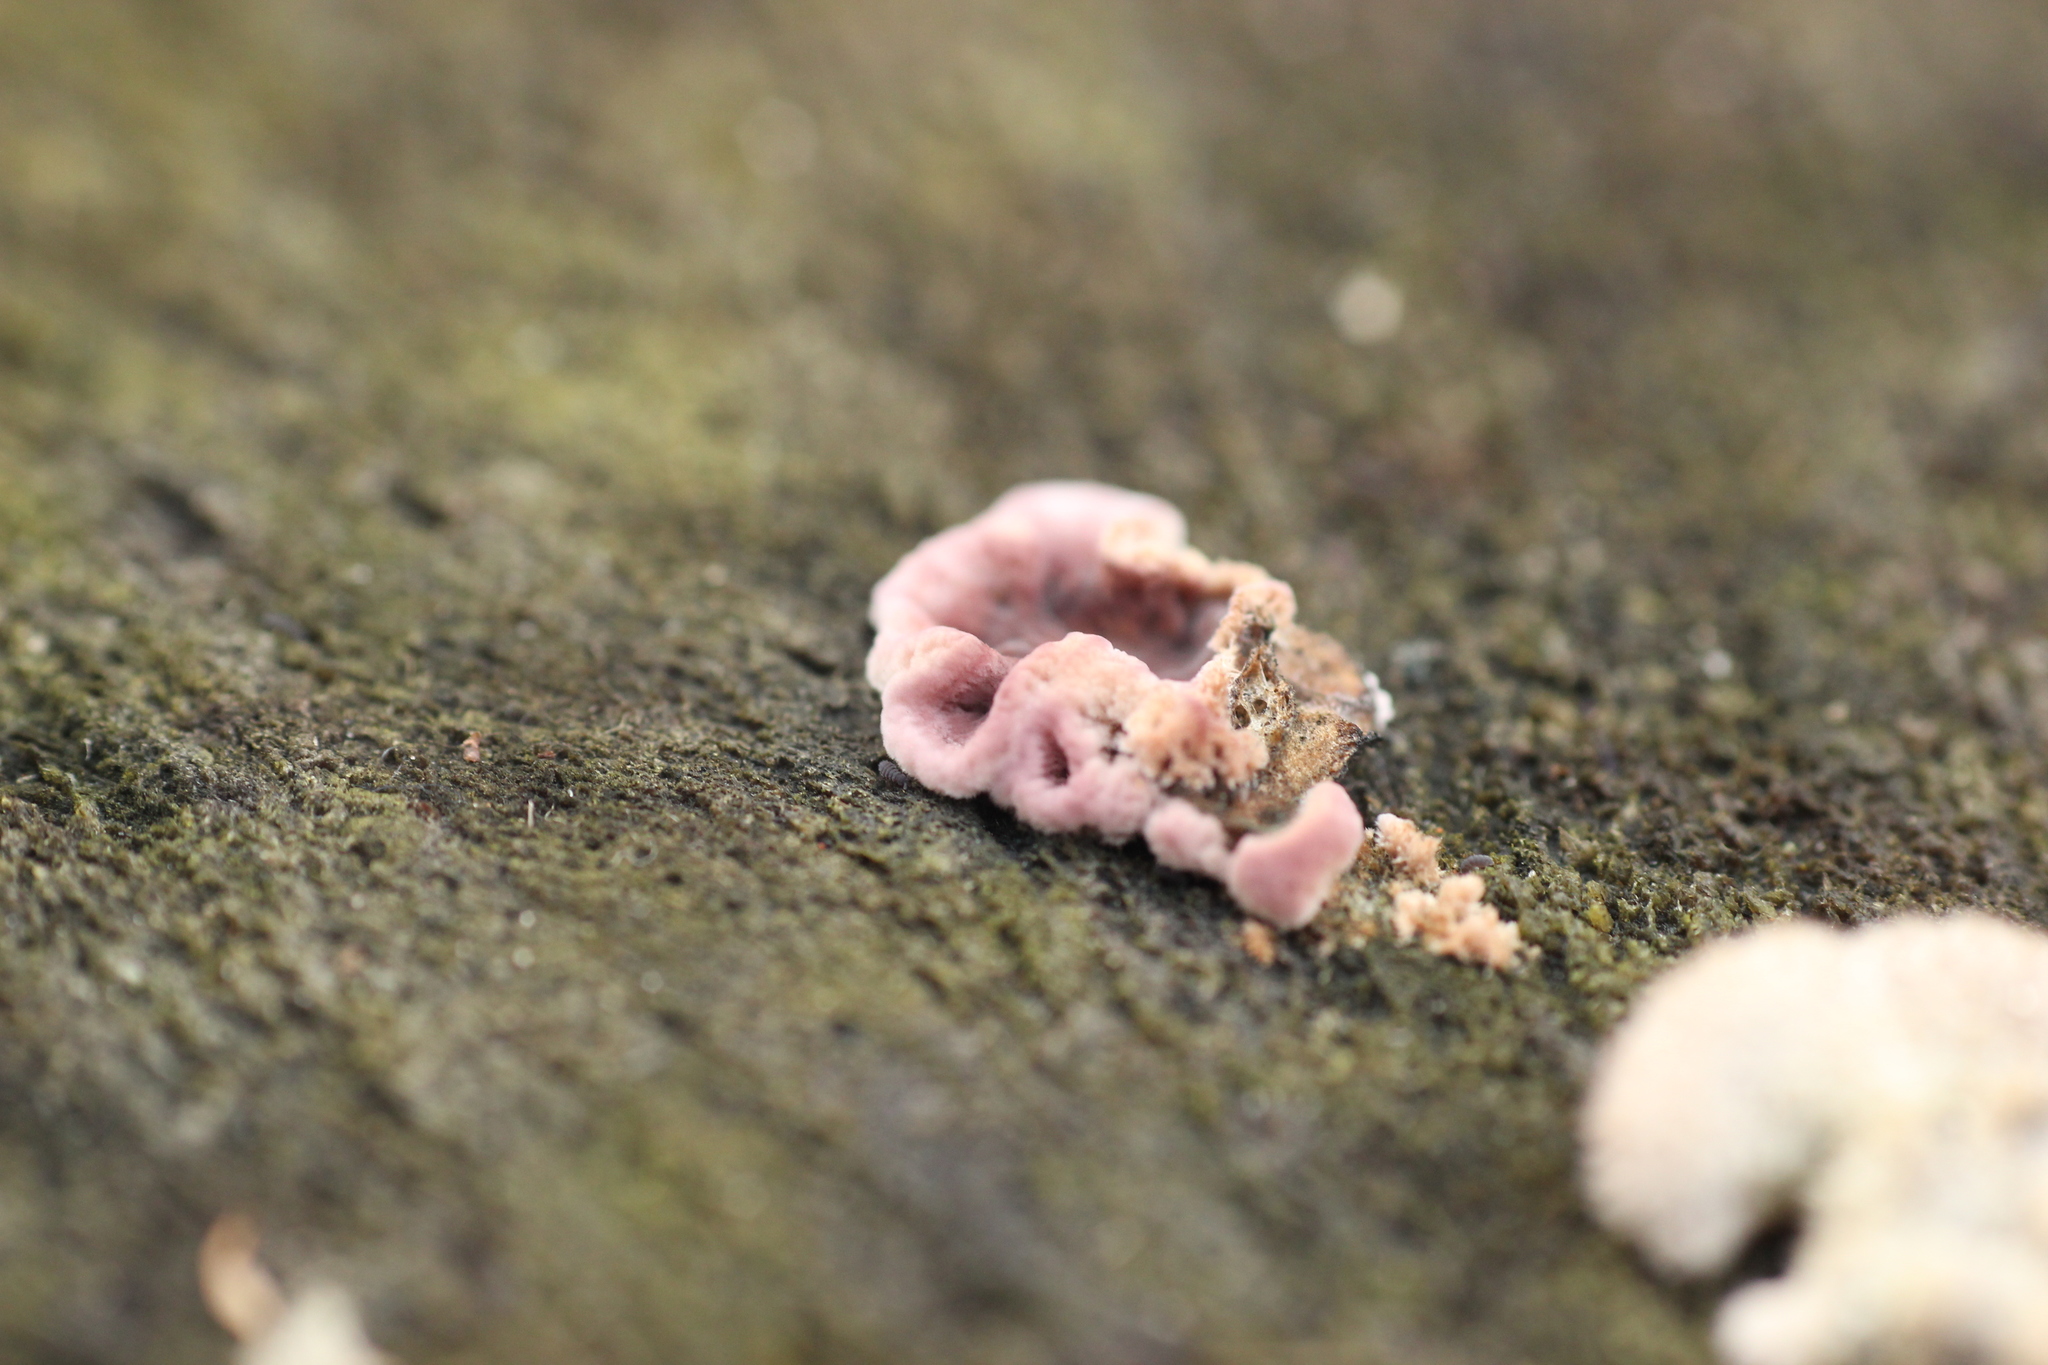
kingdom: Fungi
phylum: Basidiomycota
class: Agaricomycetes
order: Agaricales
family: Cyphellaceae
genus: Chondrostereum
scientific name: Chondrostereum purpureum
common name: Silver leaf disease
